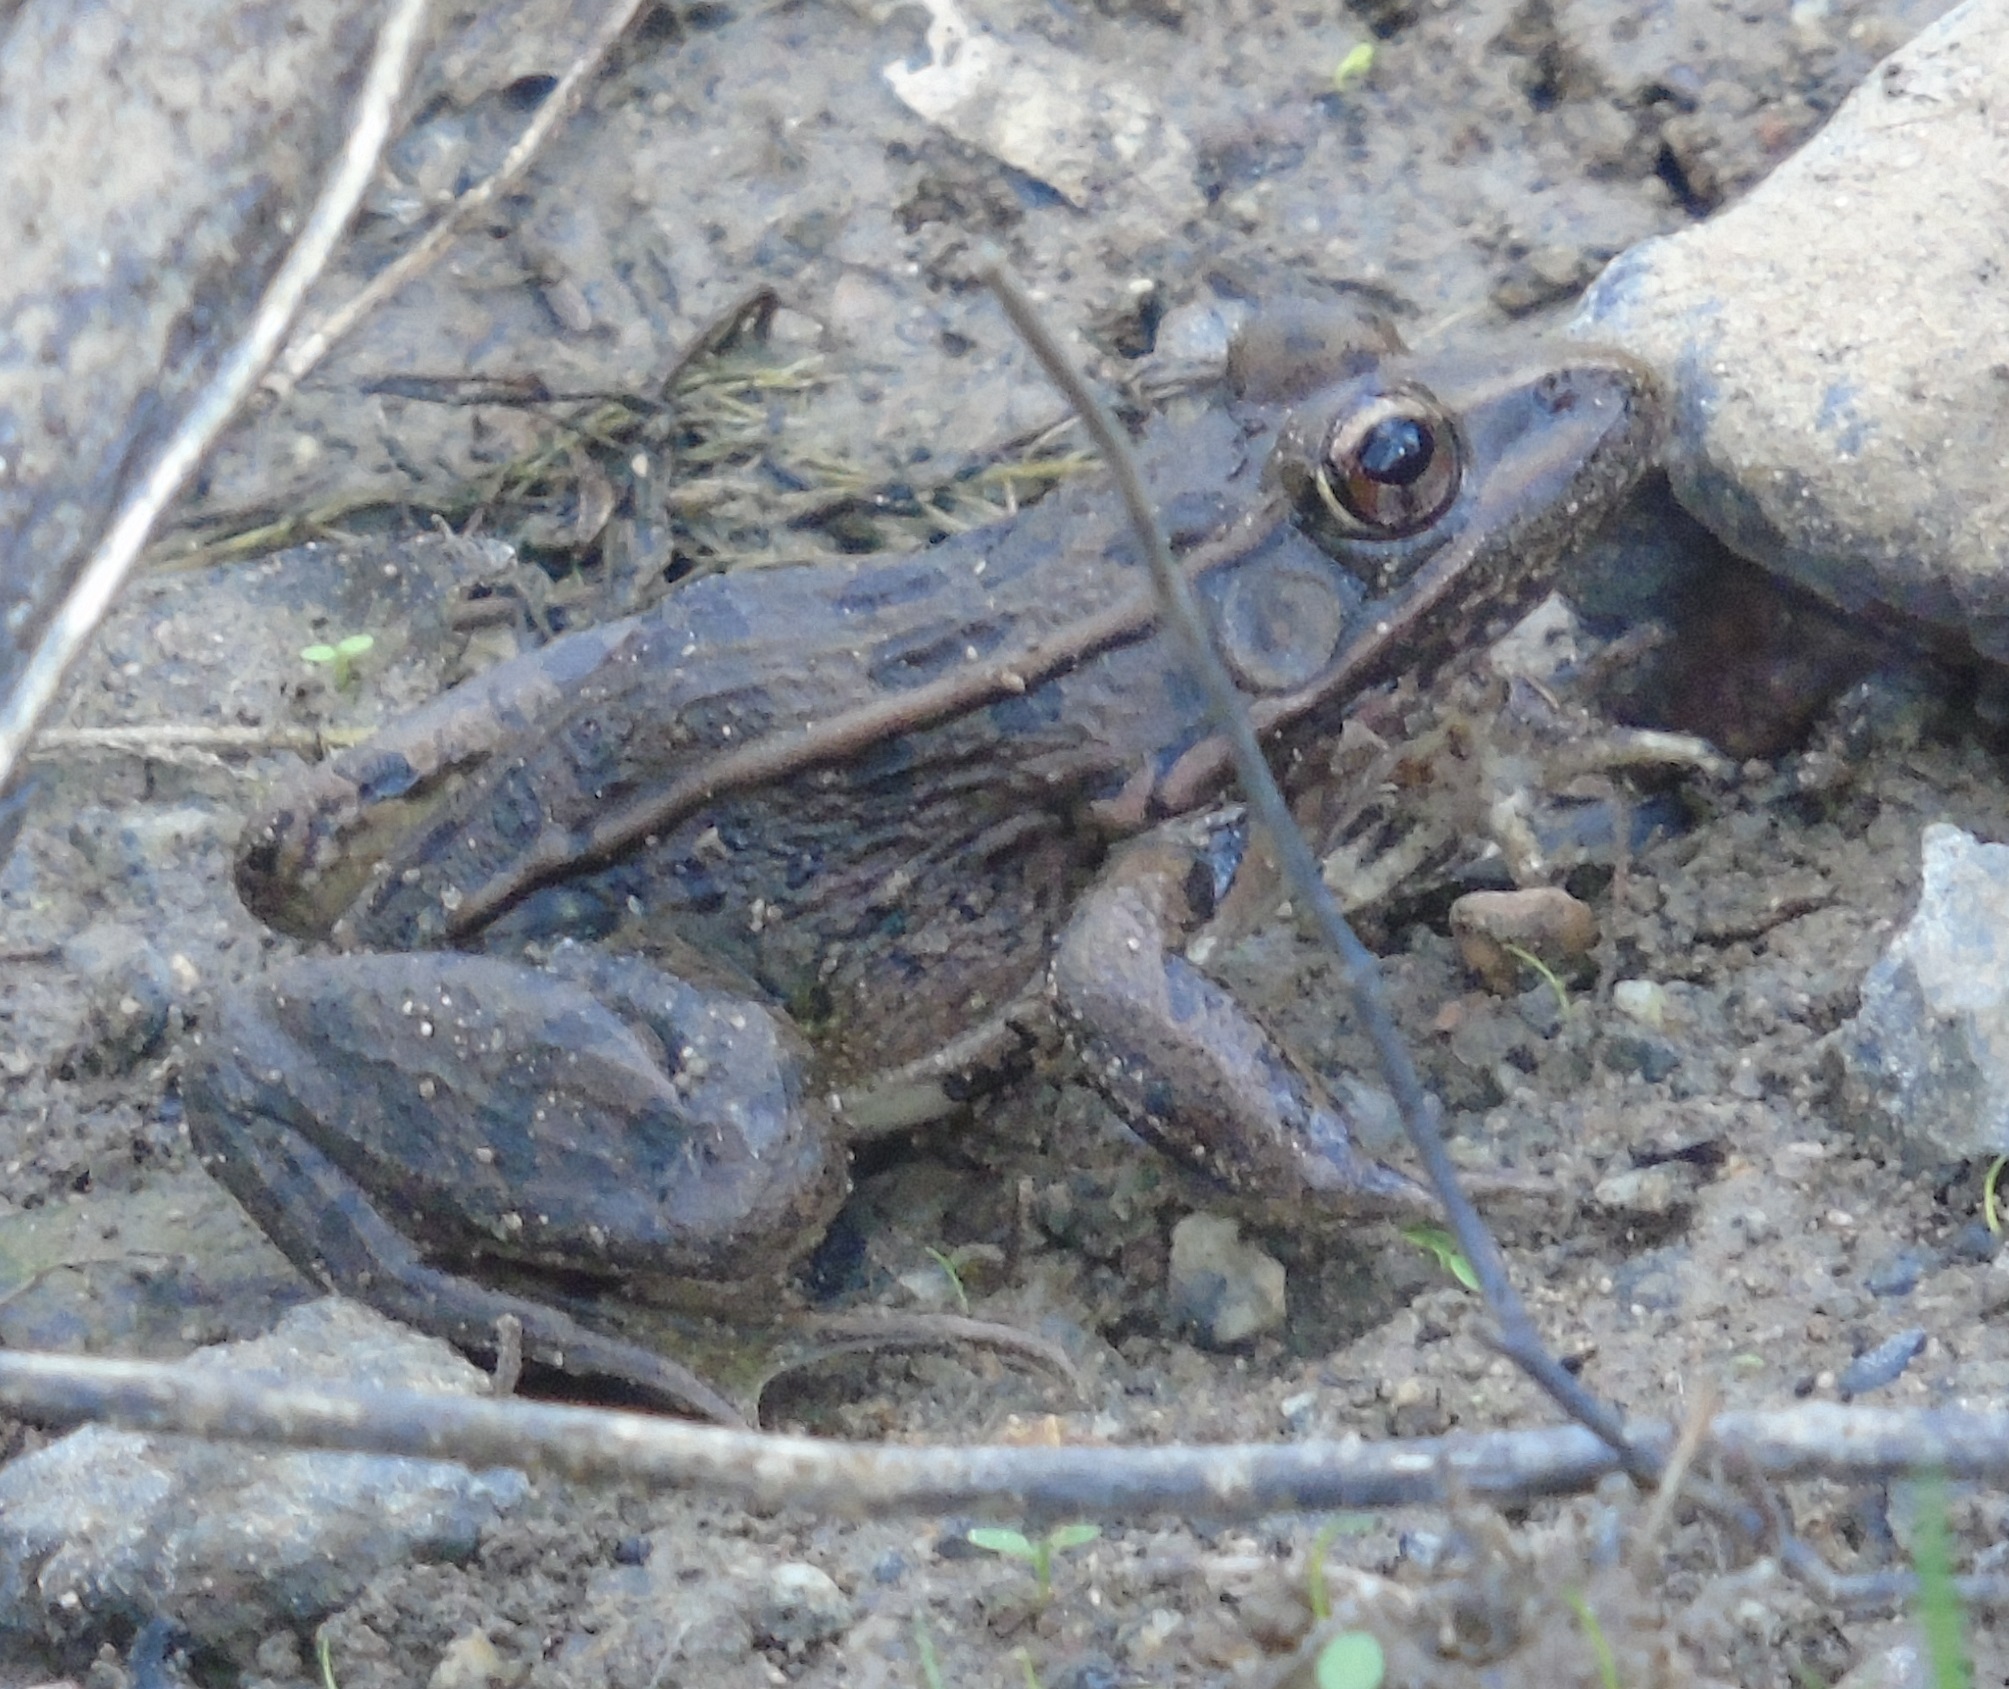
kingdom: Animalia
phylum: Chordata
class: Amphibia
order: Anura
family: Ranidae
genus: Lithobates
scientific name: Lithobates magnaocularis
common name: Northwest mexico leopard frog
